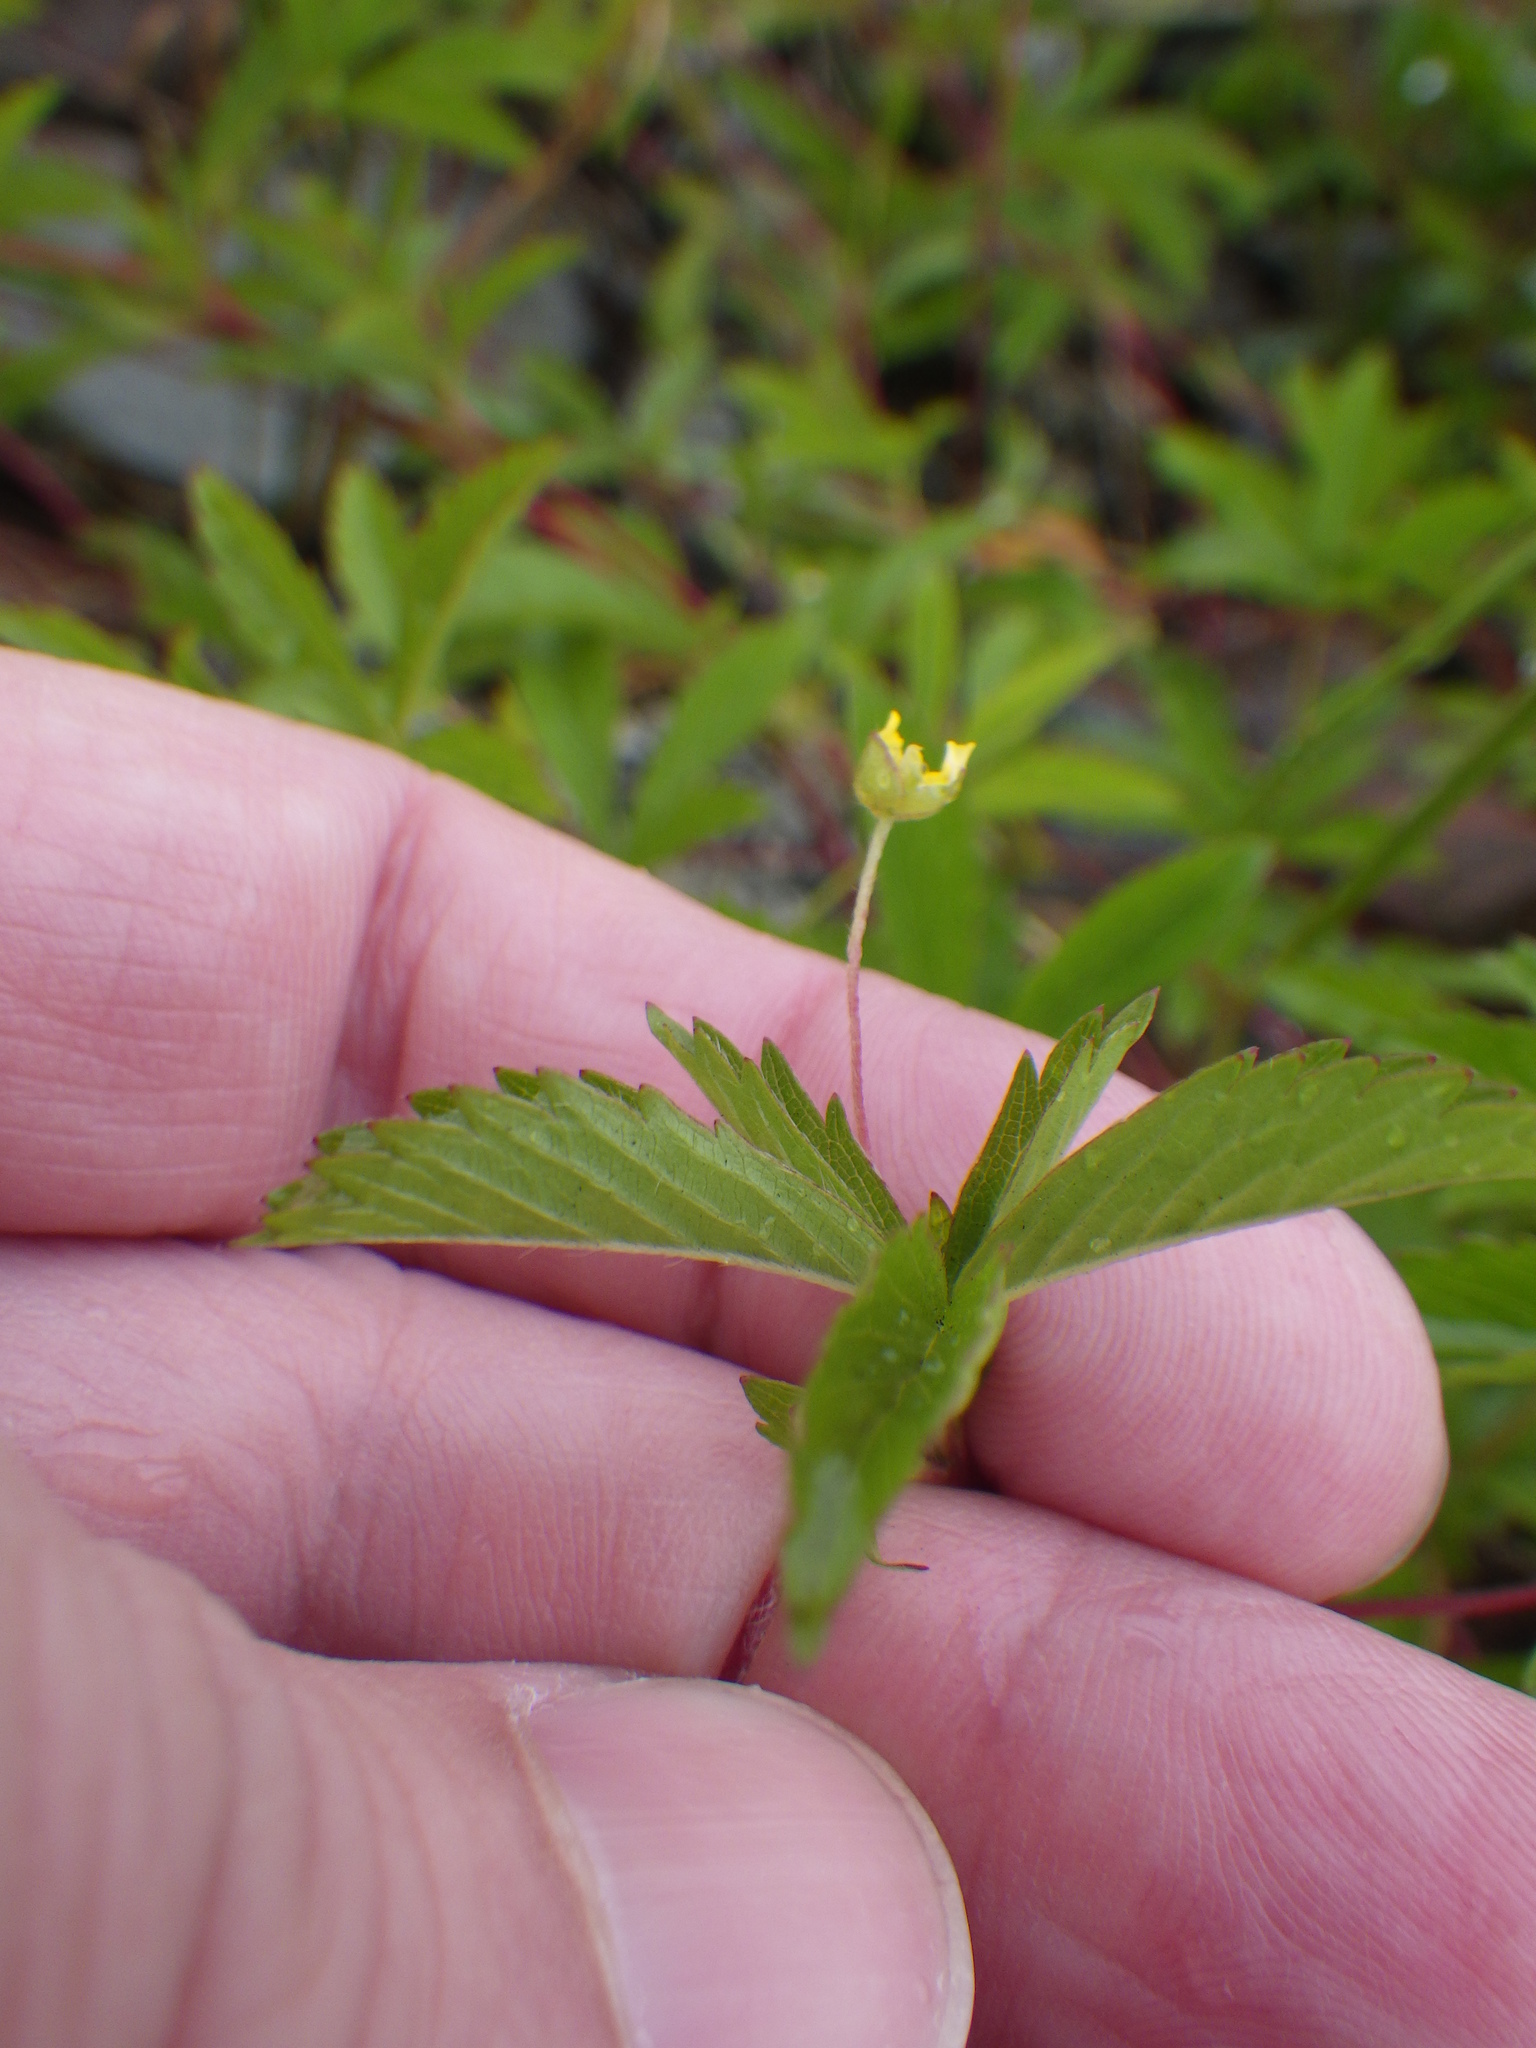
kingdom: Plantae
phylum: Tracheophyta
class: Magnoliopsida
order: Rosales
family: Rosaceae
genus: Potentilla
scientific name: Potentilla simplex
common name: Old field cinquefoil
